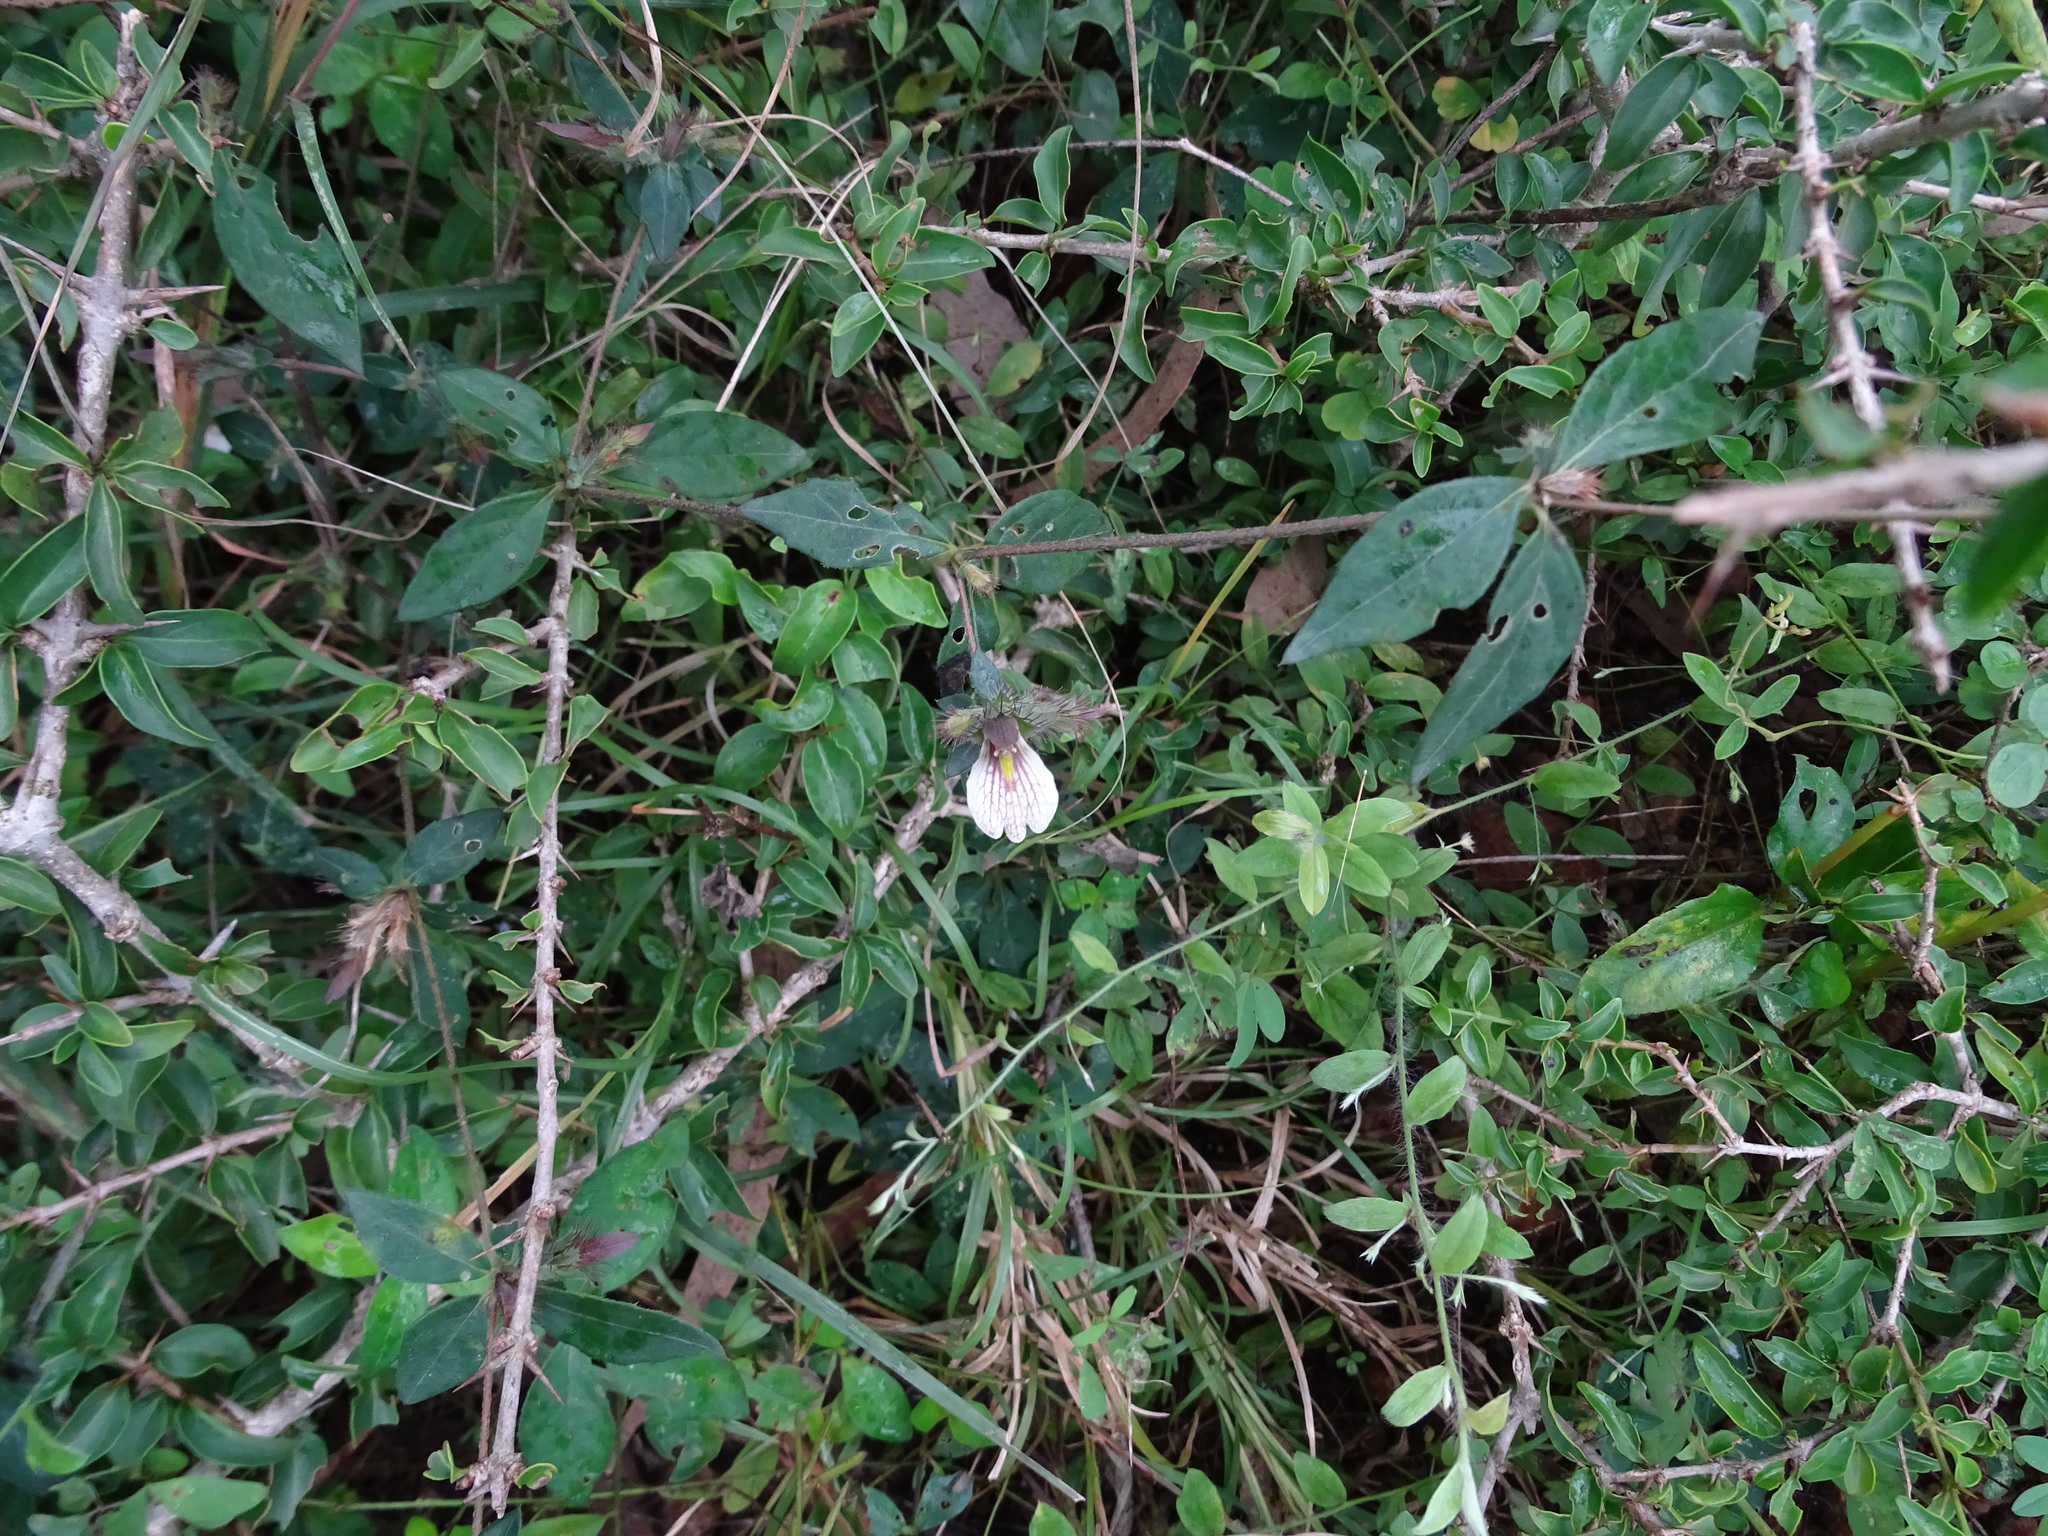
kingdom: Plantae
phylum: Tracheophyta
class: Magnoliopsida
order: Lamiales
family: Acanthaceae
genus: Blepharis
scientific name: Blepharis maderaspatensis
